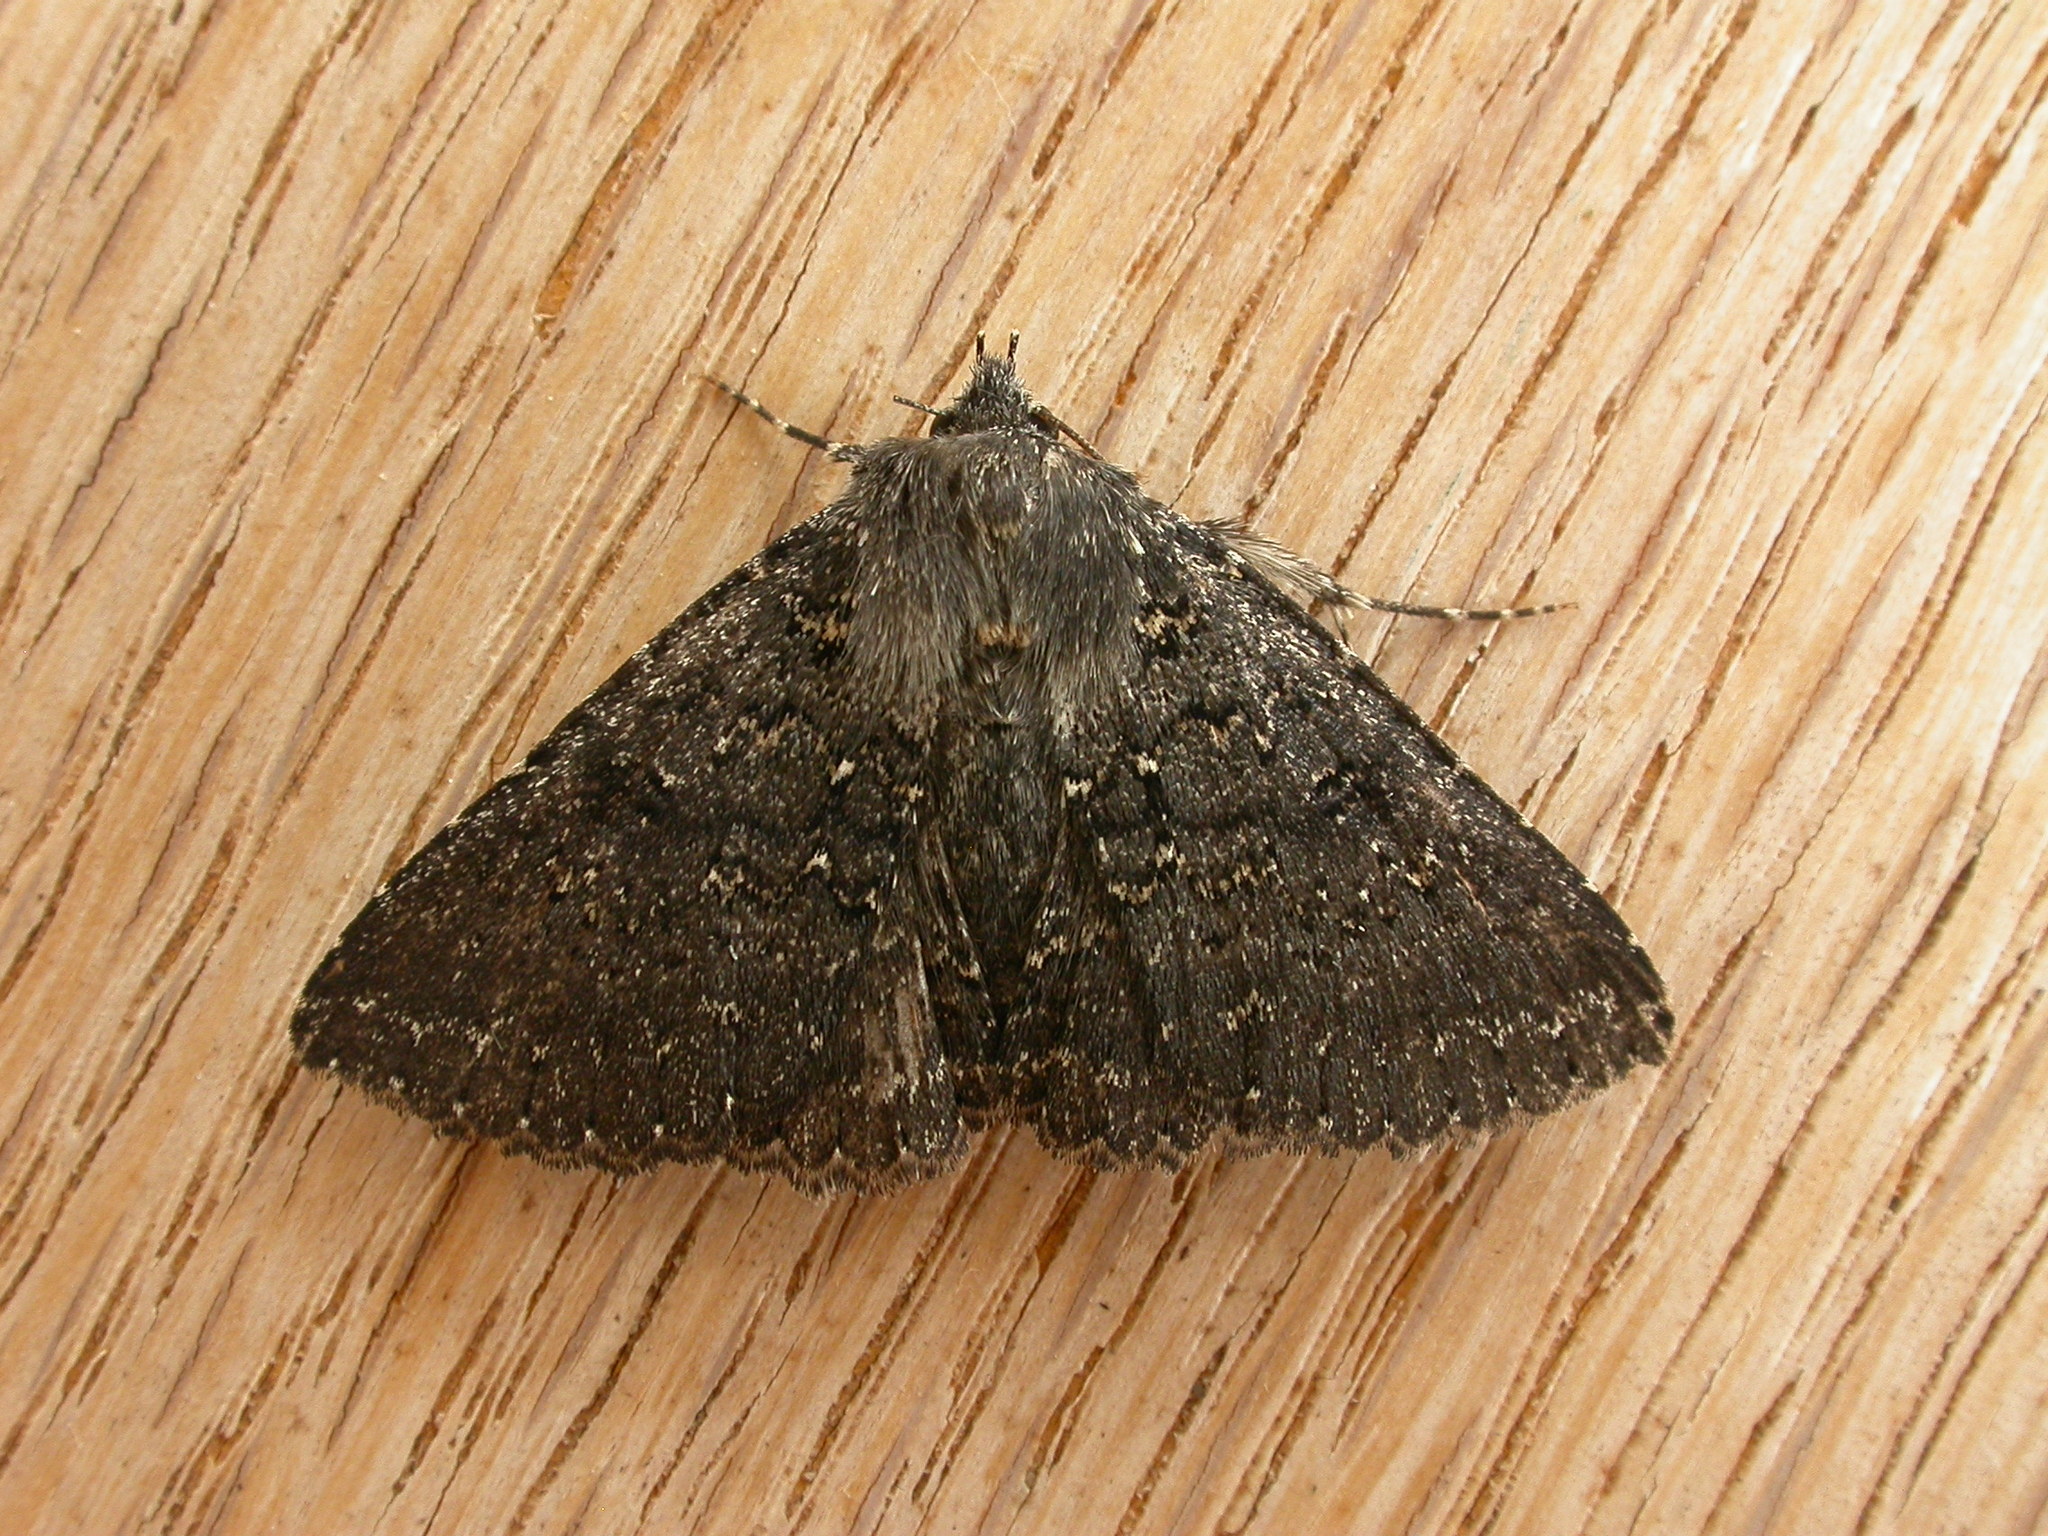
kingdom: Animalia
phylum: Arthropoda
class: Insecta
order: Lepidoptera
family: Erebidae
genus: Praxis
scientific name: Praxis edwardsii
